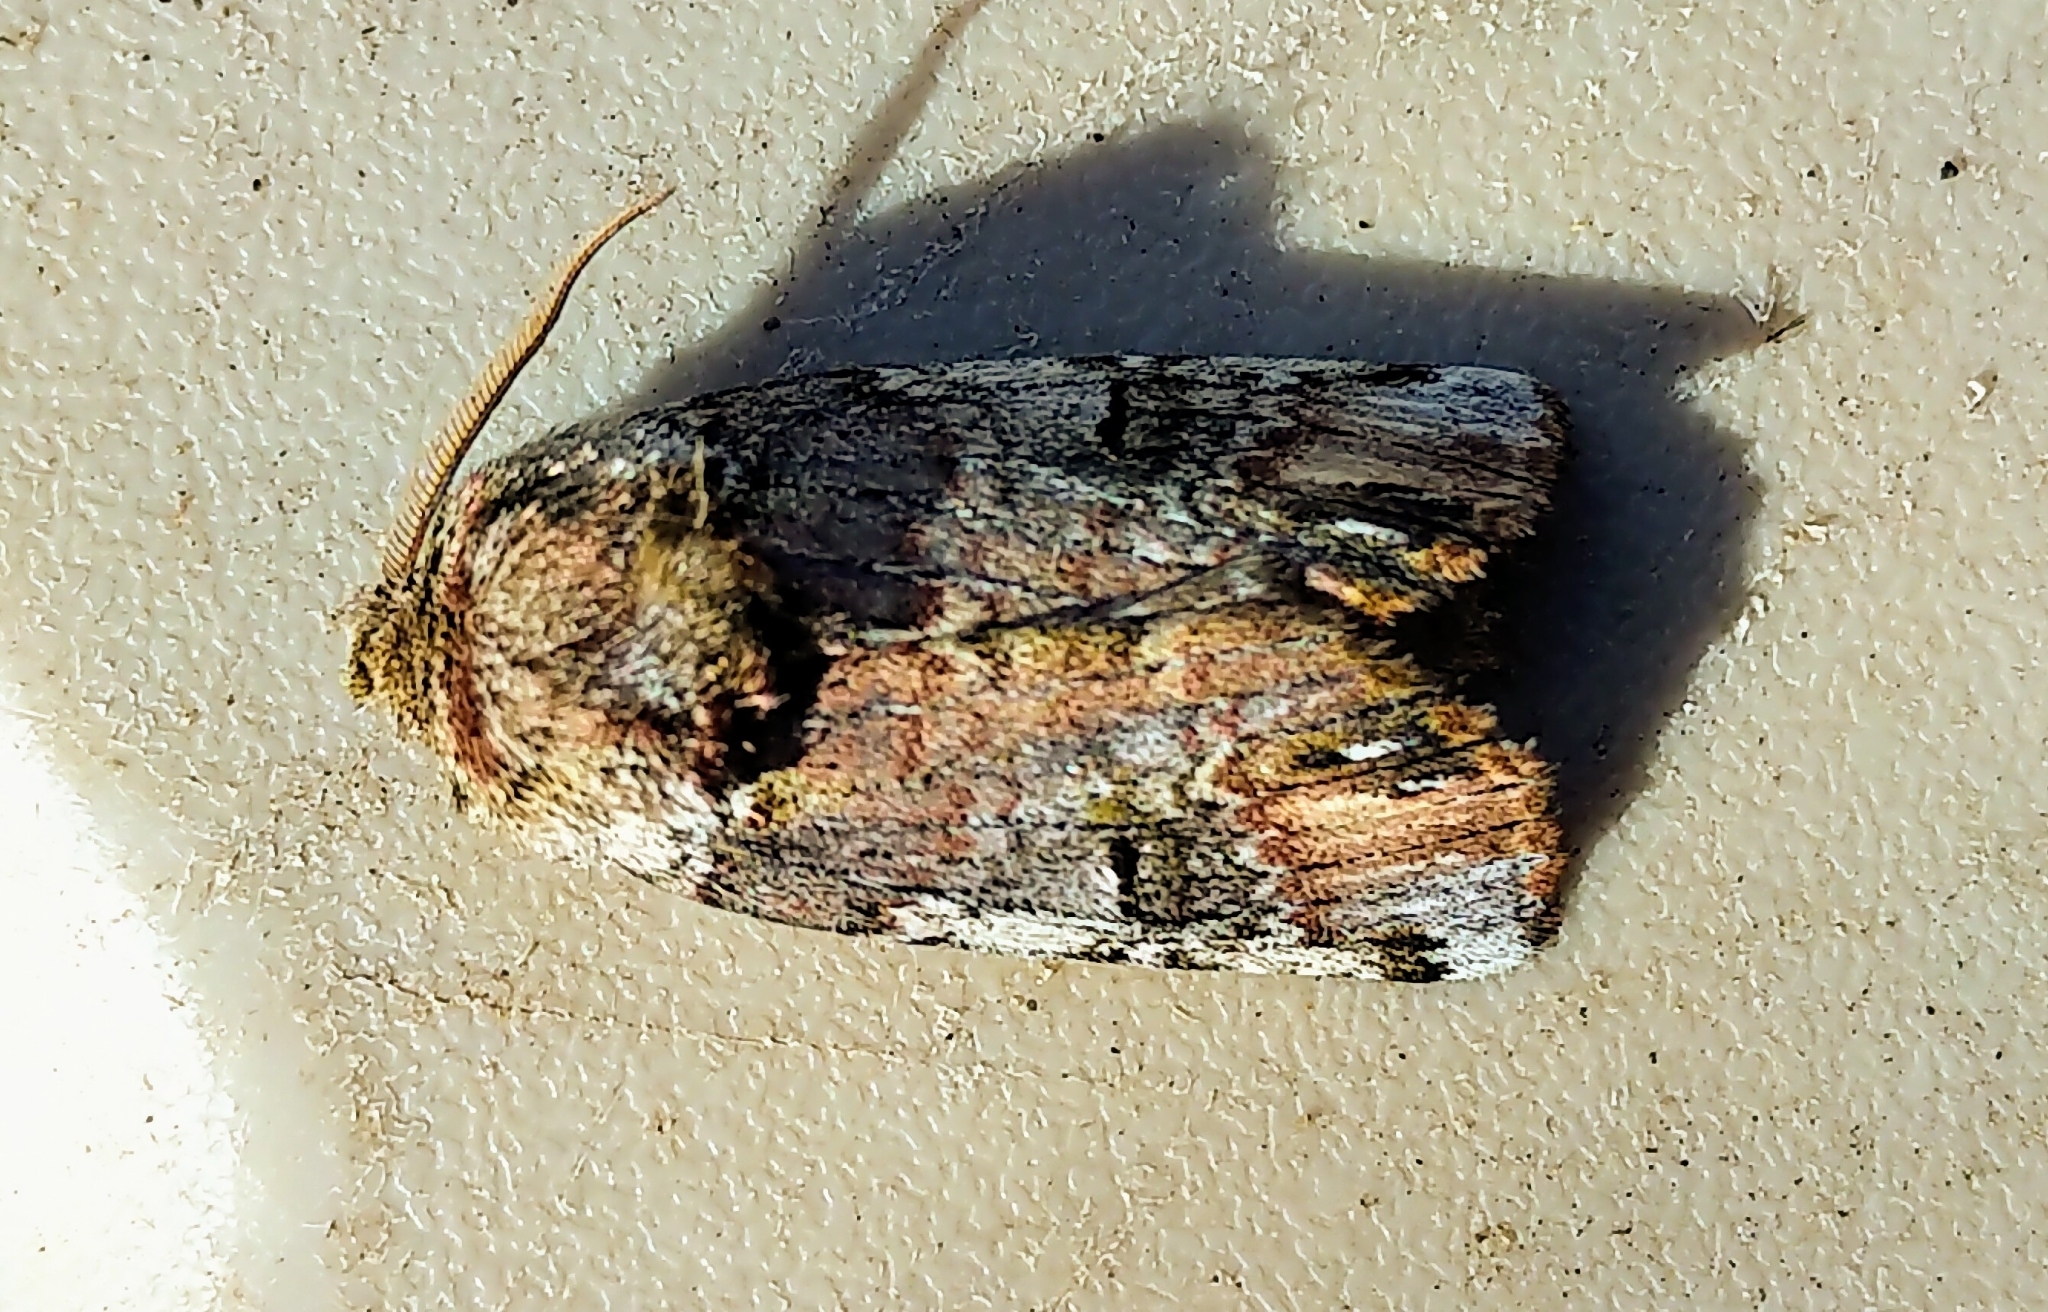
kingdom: Animalia
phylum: Arthropoda
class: Insecta
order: Lepidoptera
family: Notodontidae
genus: Schizura
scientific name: Schizura
